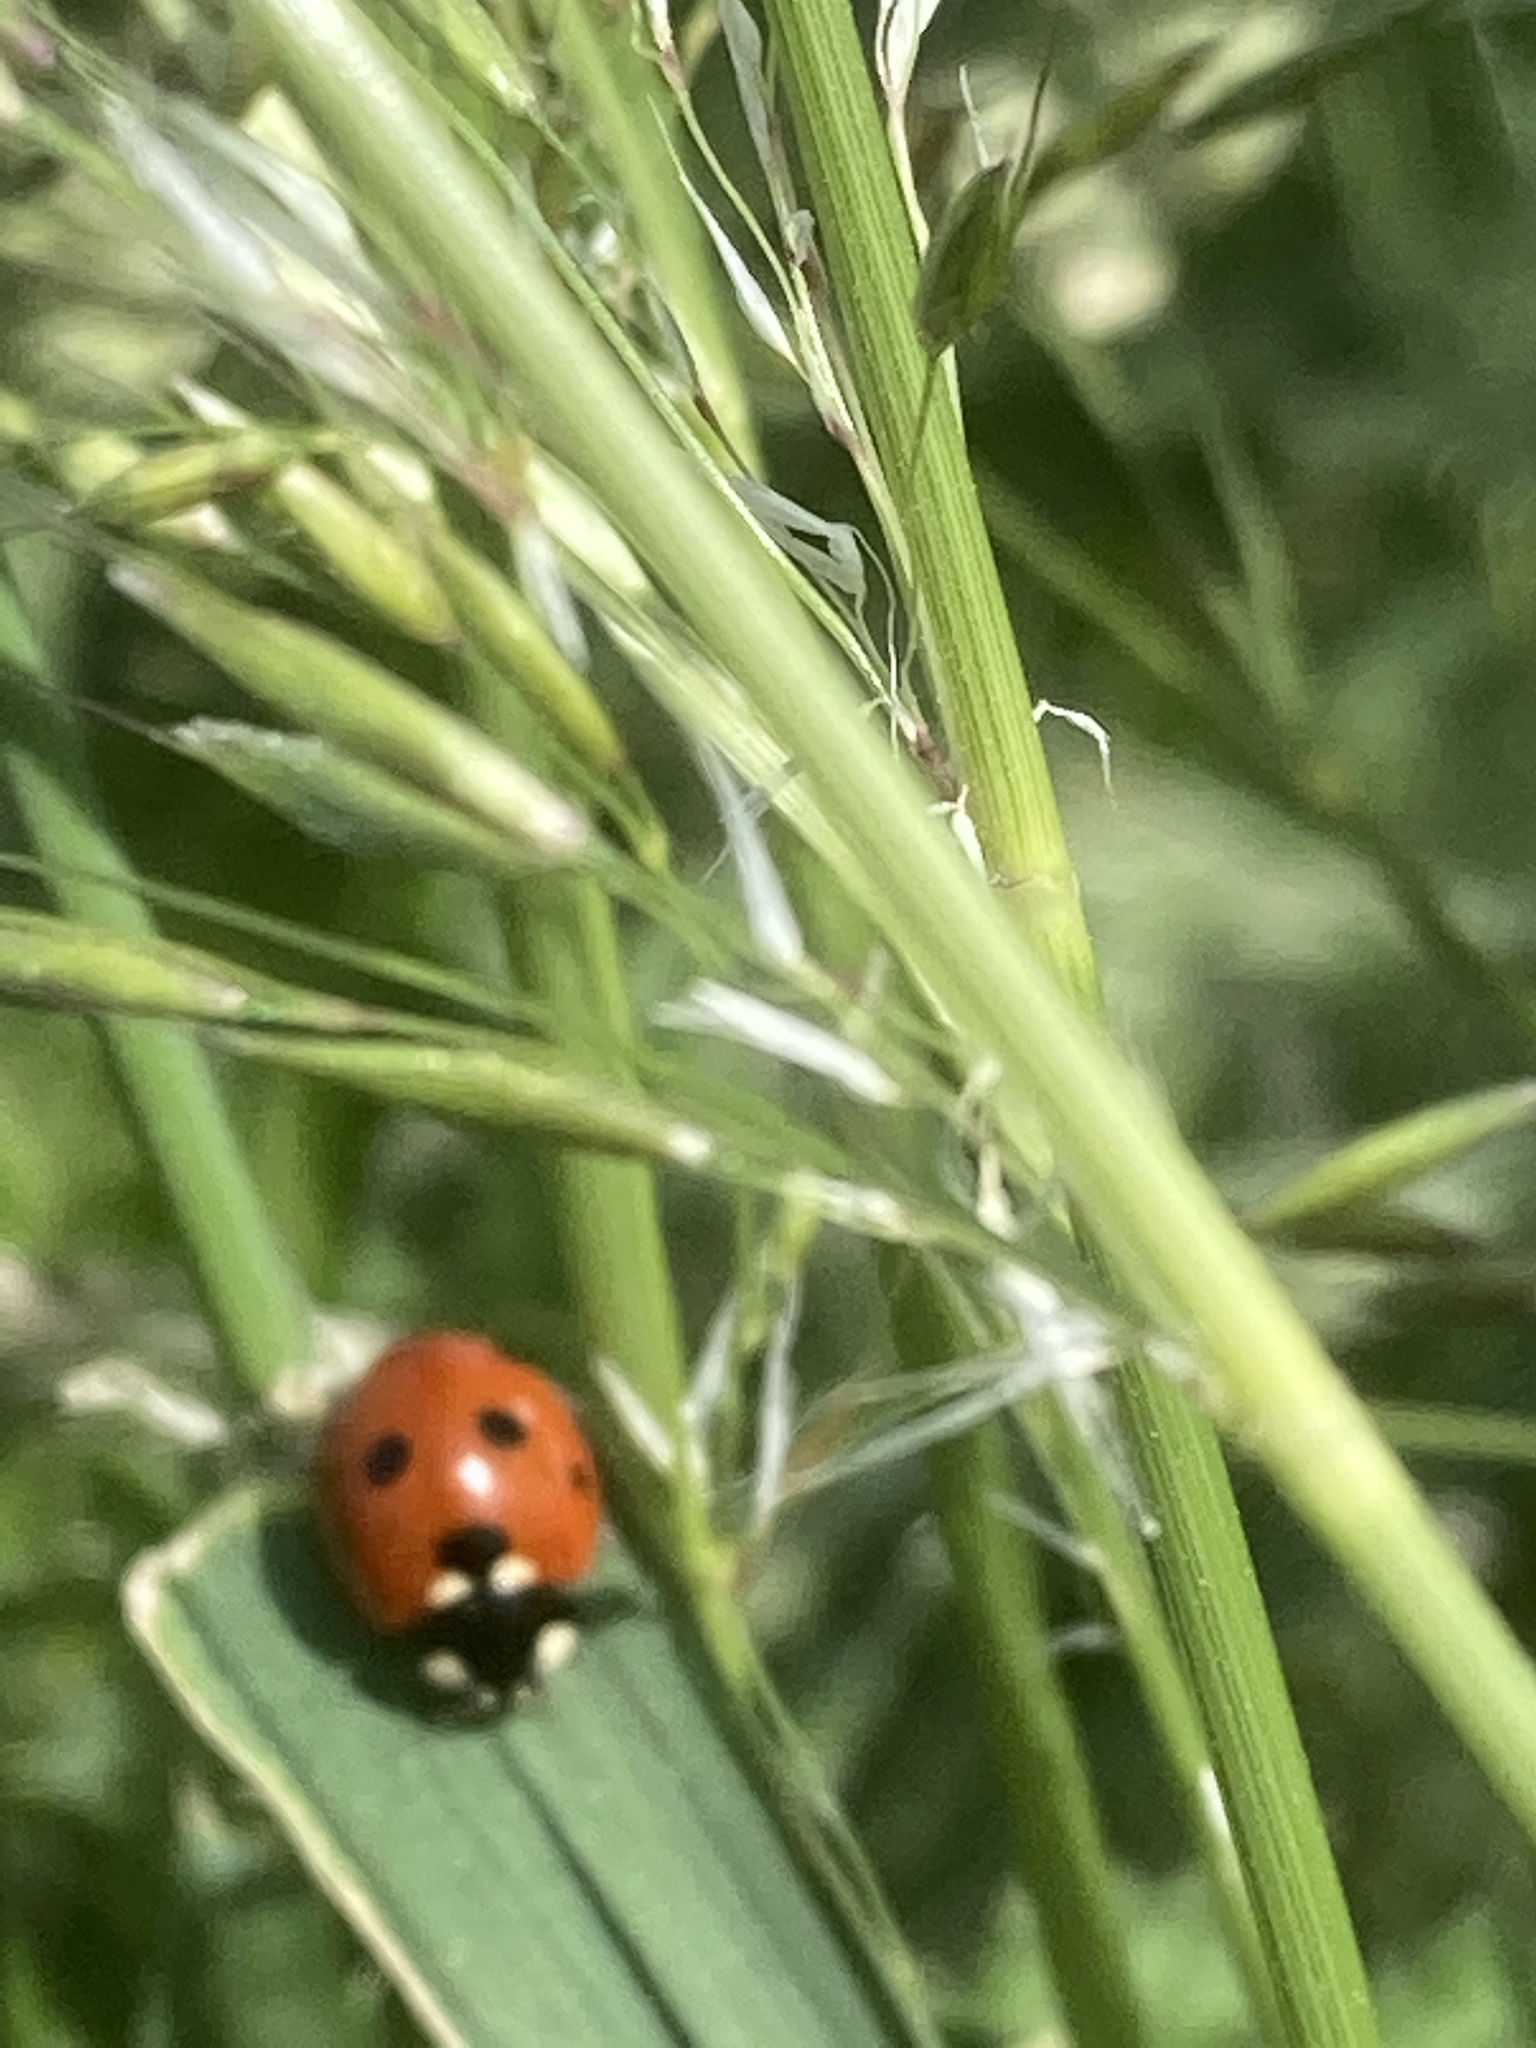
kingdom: Animalia
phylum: Arthropoda
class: Insecta
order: Coleoptera
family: Coccinellidae
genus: Coccinella
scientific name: Coccinella septempunctata
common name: Sevenspotted lady beetle
